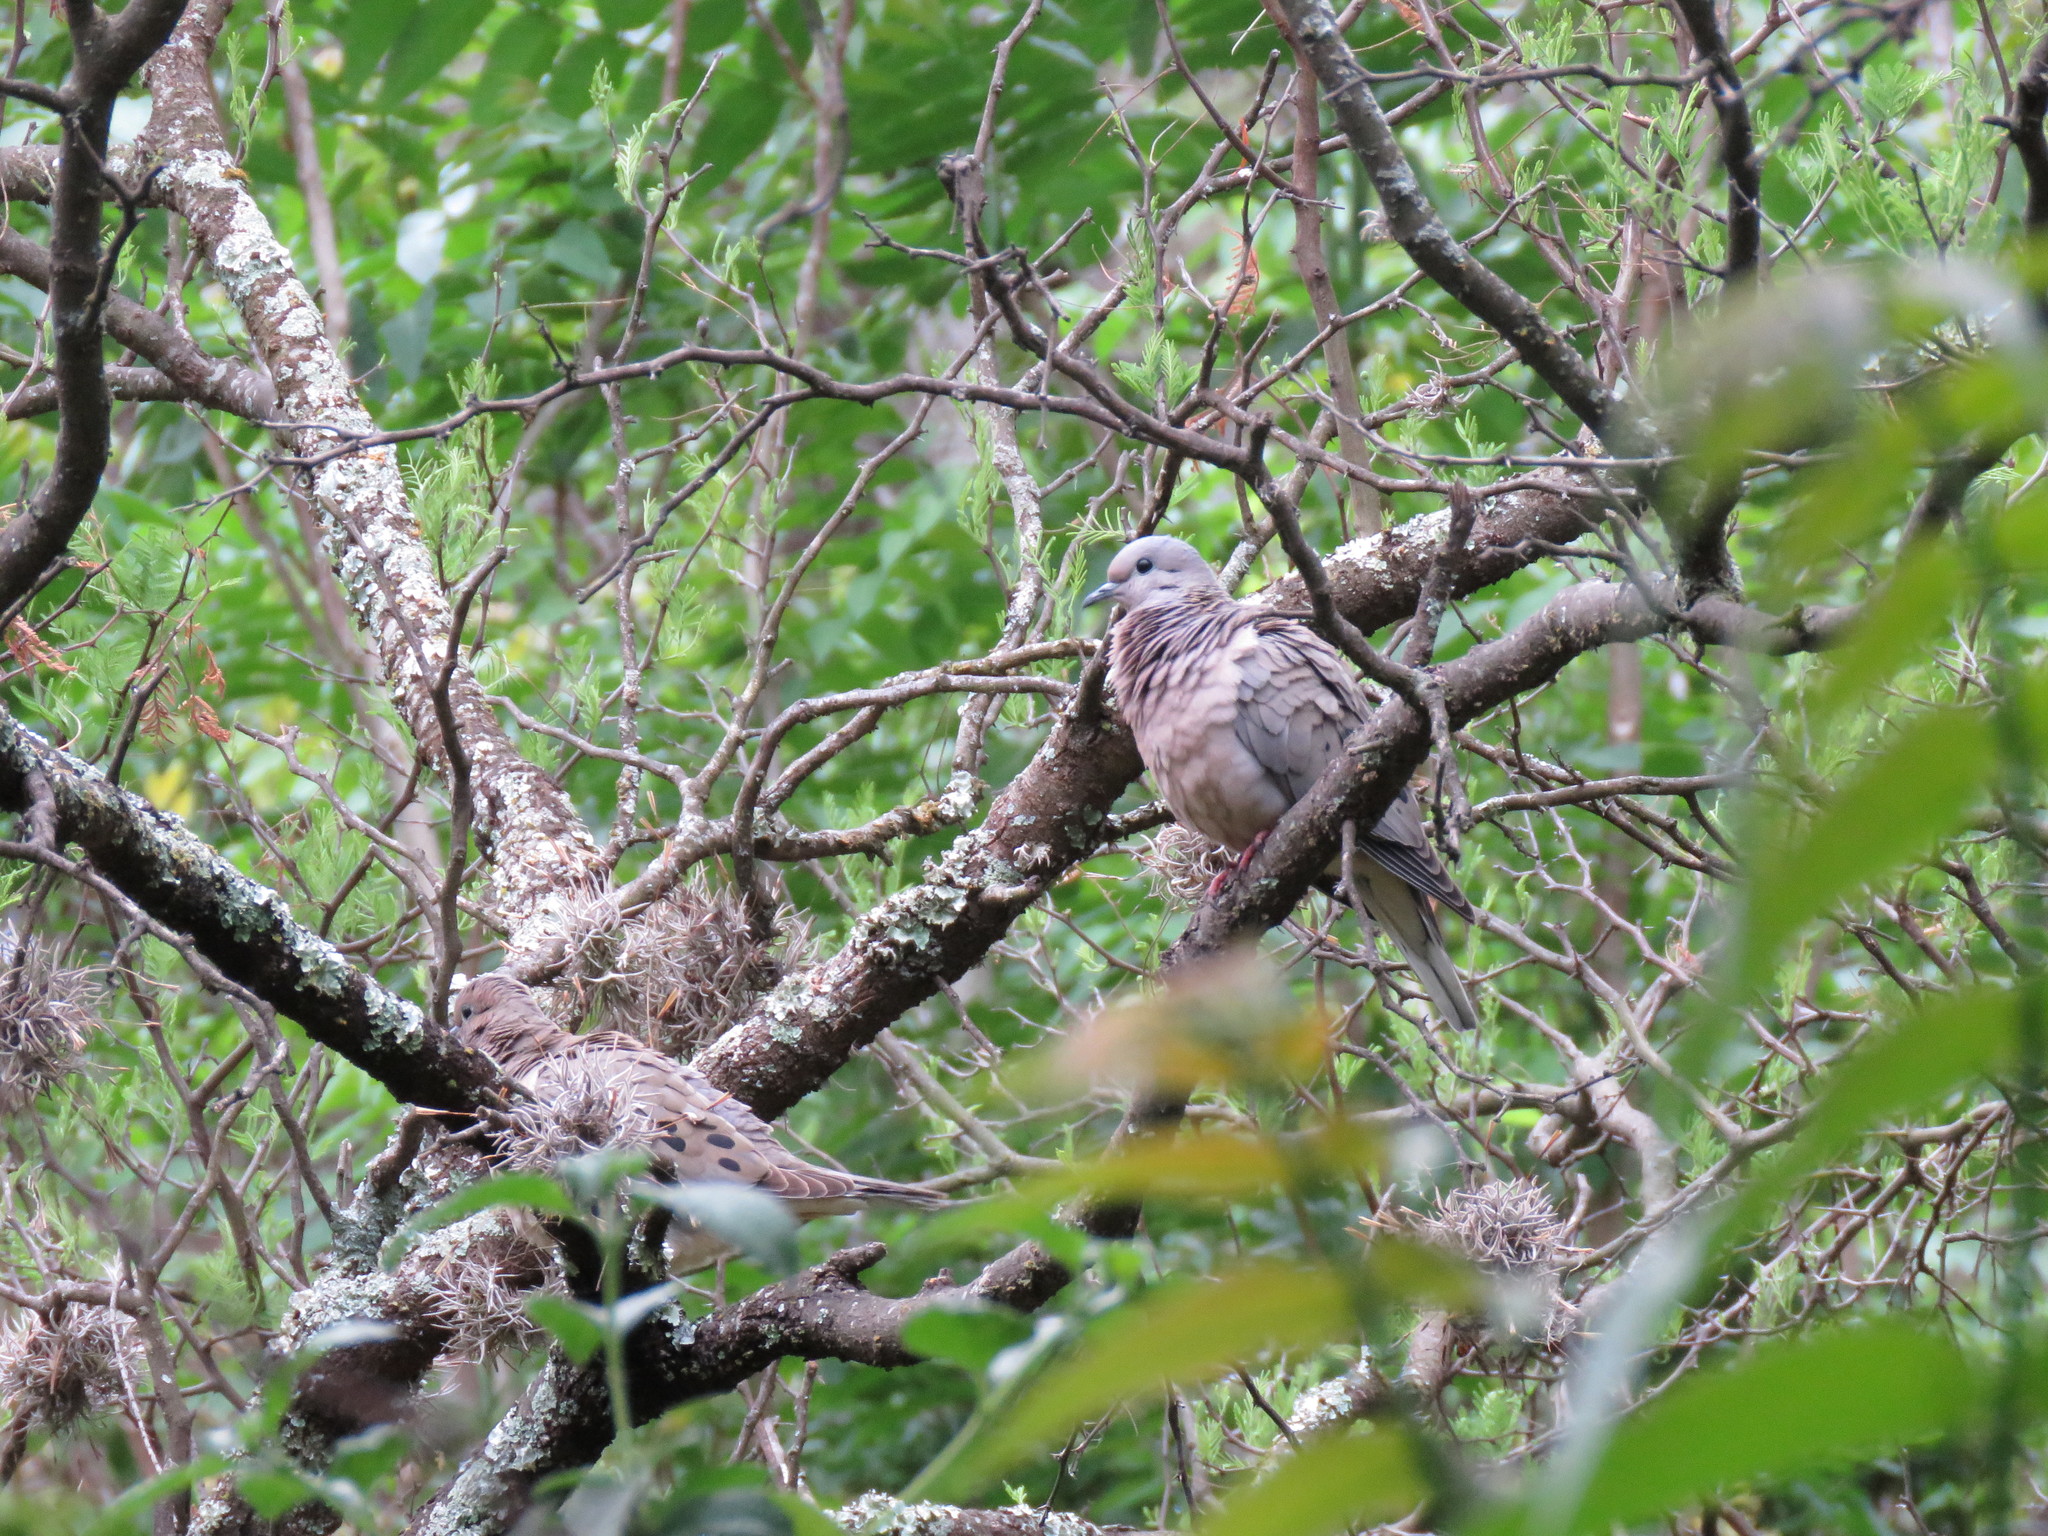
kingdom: Animalia
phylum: Chordata
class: Aves
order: Columbiformes
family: Columbidae
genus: Zenaida
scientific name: Zenaida auriculata
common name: Eared dove
